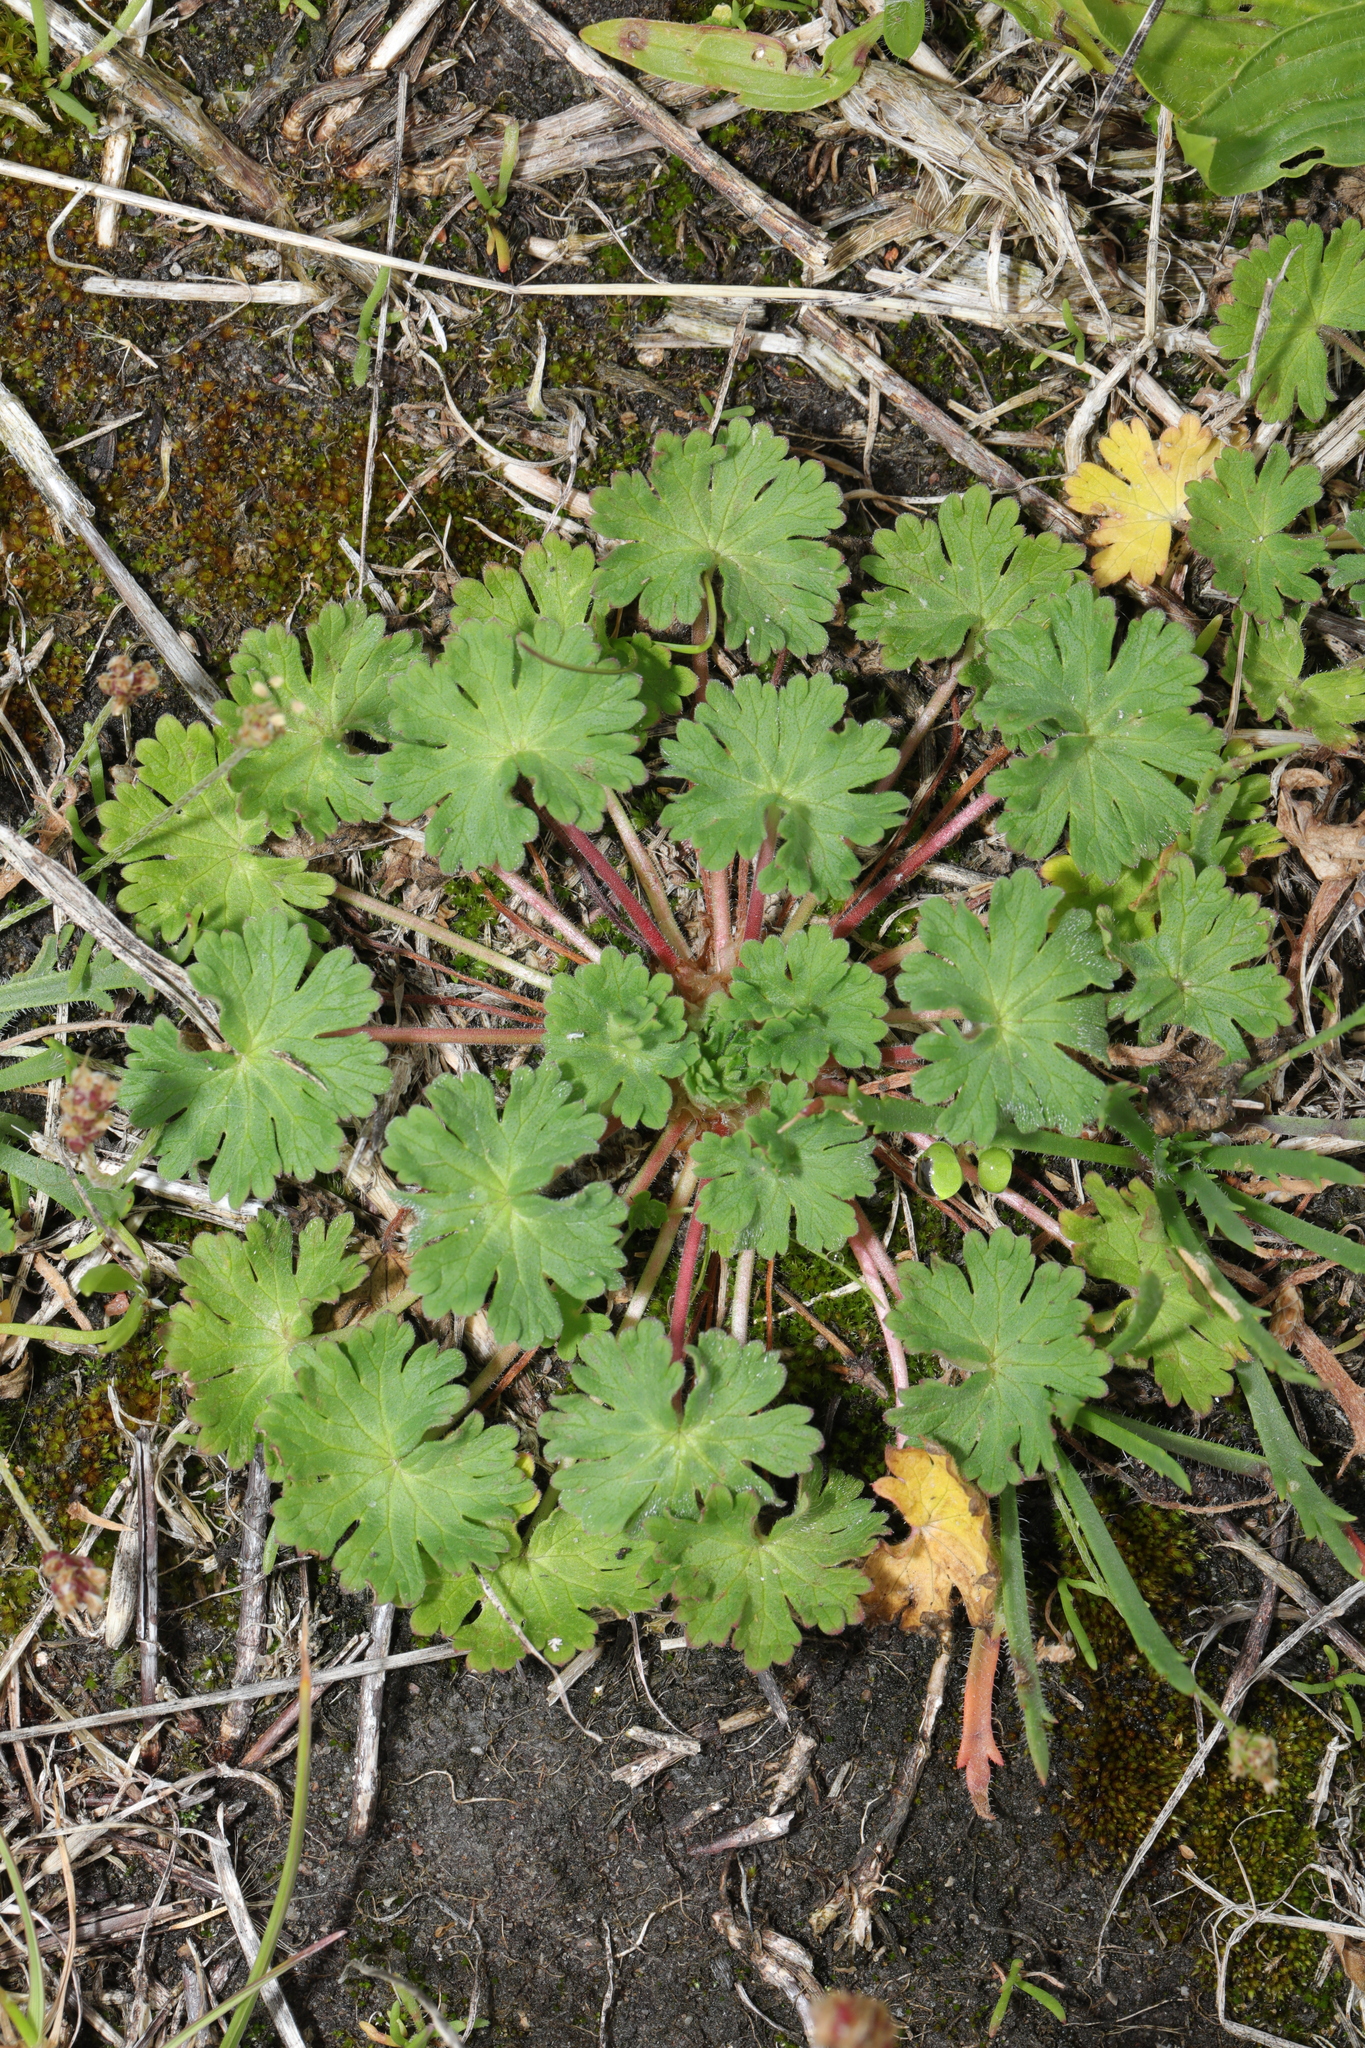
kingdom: Plantae
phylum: Tracheophyta
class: Magnoliopsida
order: Geraniales
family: Geraniaceae
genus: Geranium
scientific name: Geranium molle
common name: Dove's-foot crane's-bill
